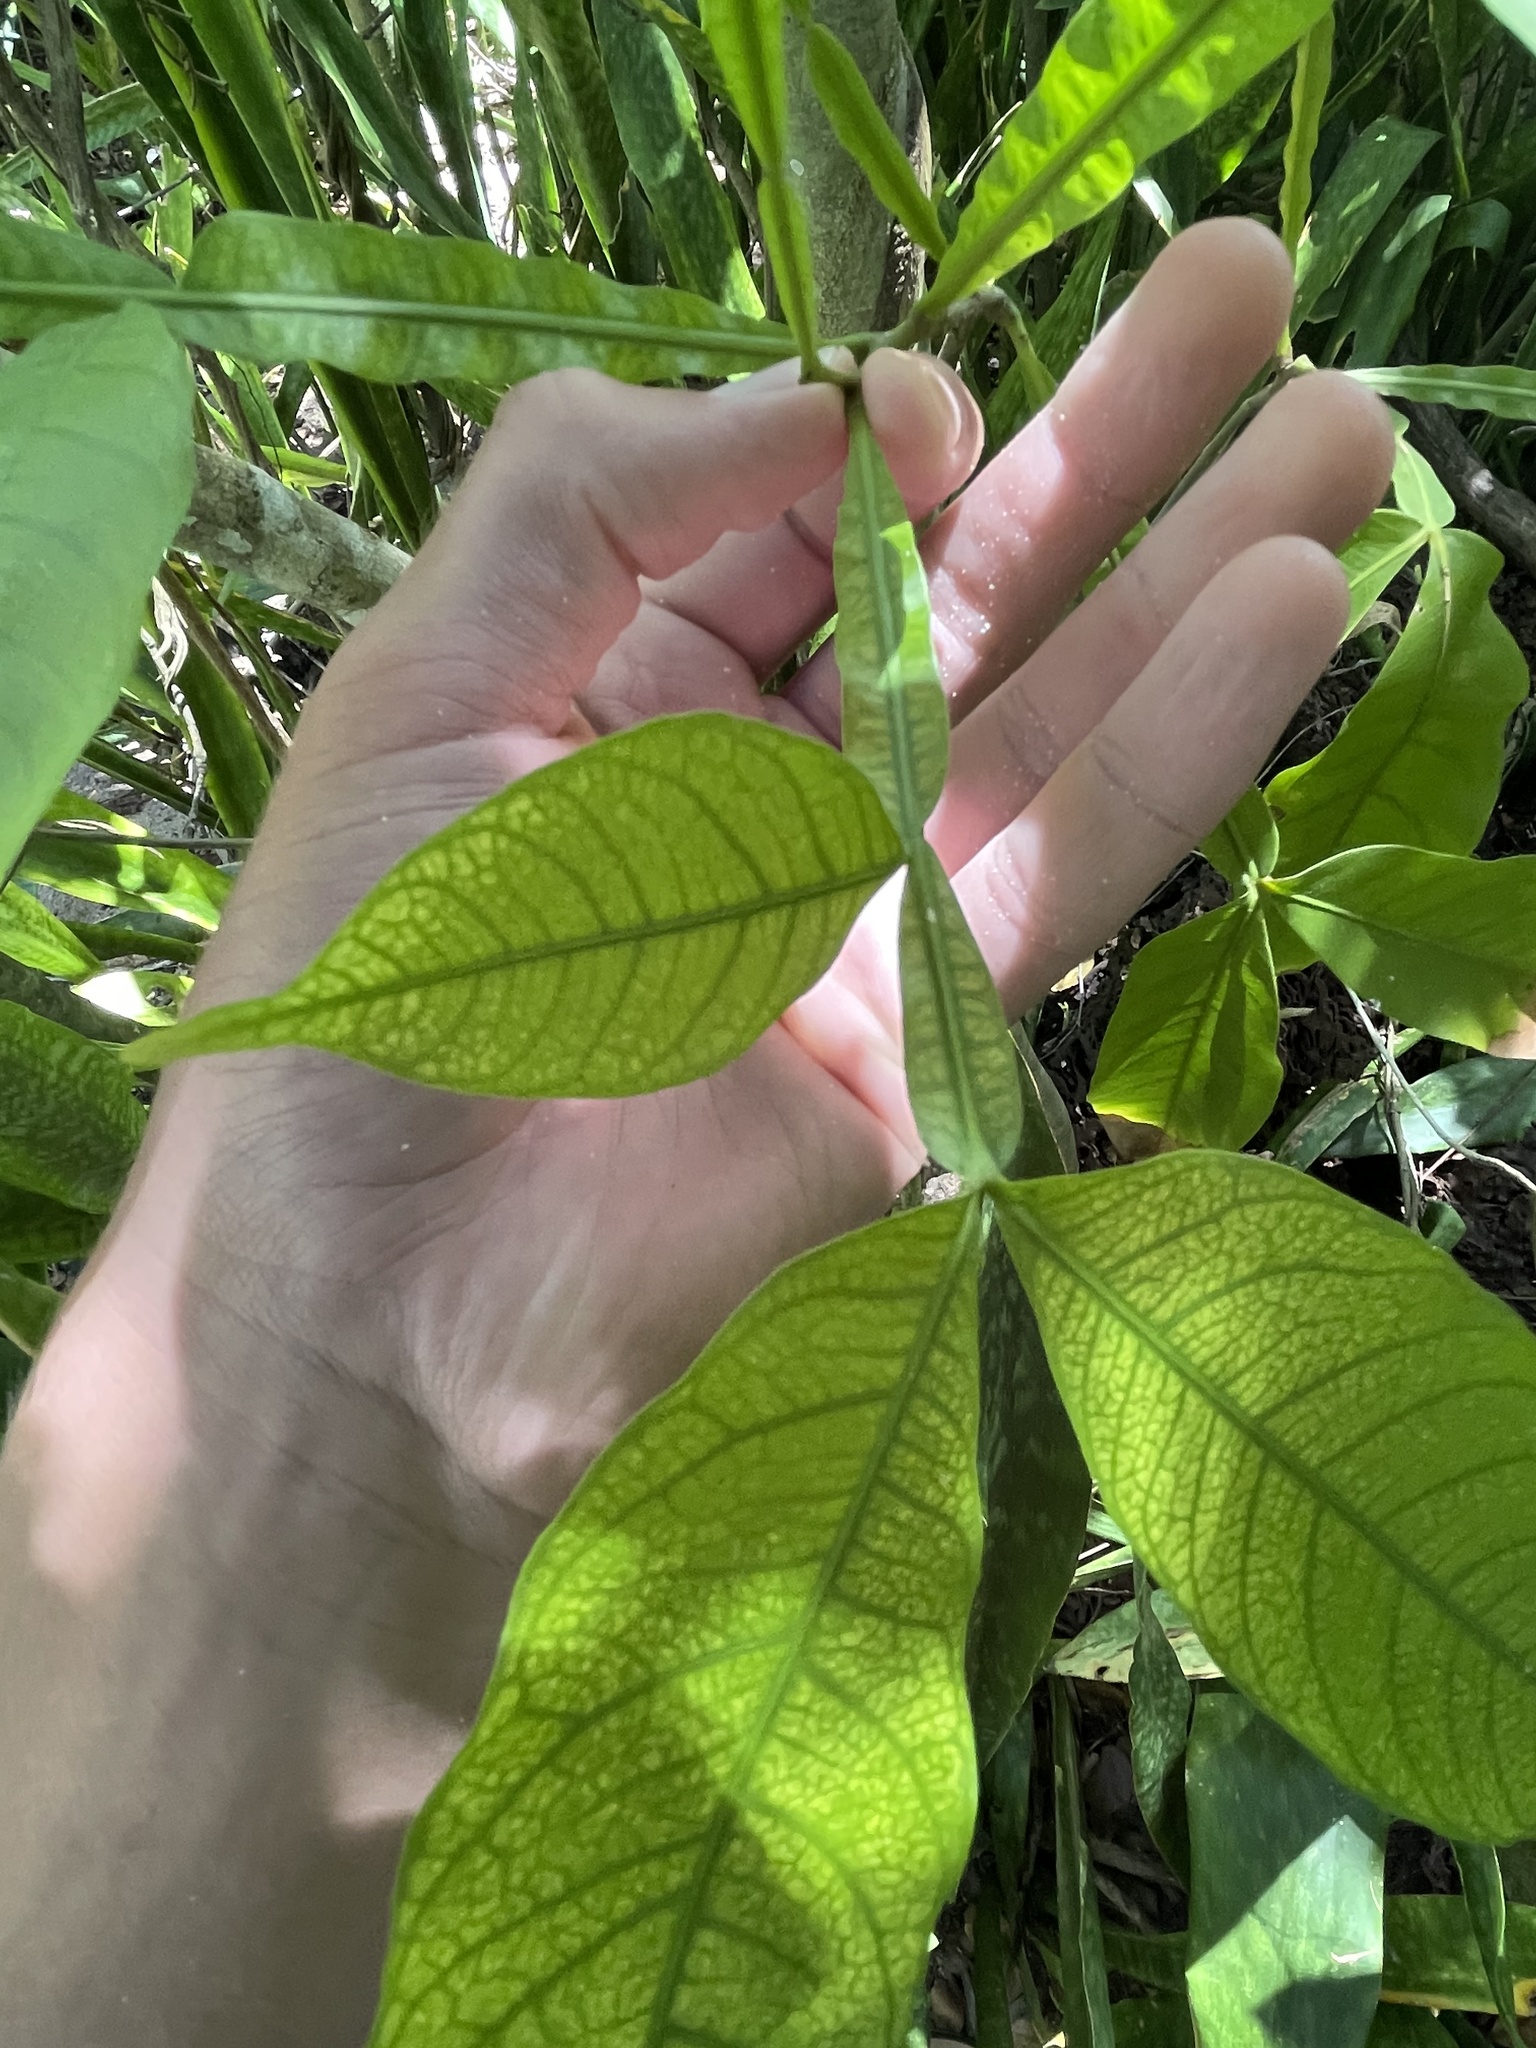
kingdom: Plantae
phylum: Tracheophyta
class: Magnoliopsida
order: Sapindales
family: Sapindaceae
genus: Melicoccus
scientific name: Melicoccus bijugatus
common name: Spanish lime
